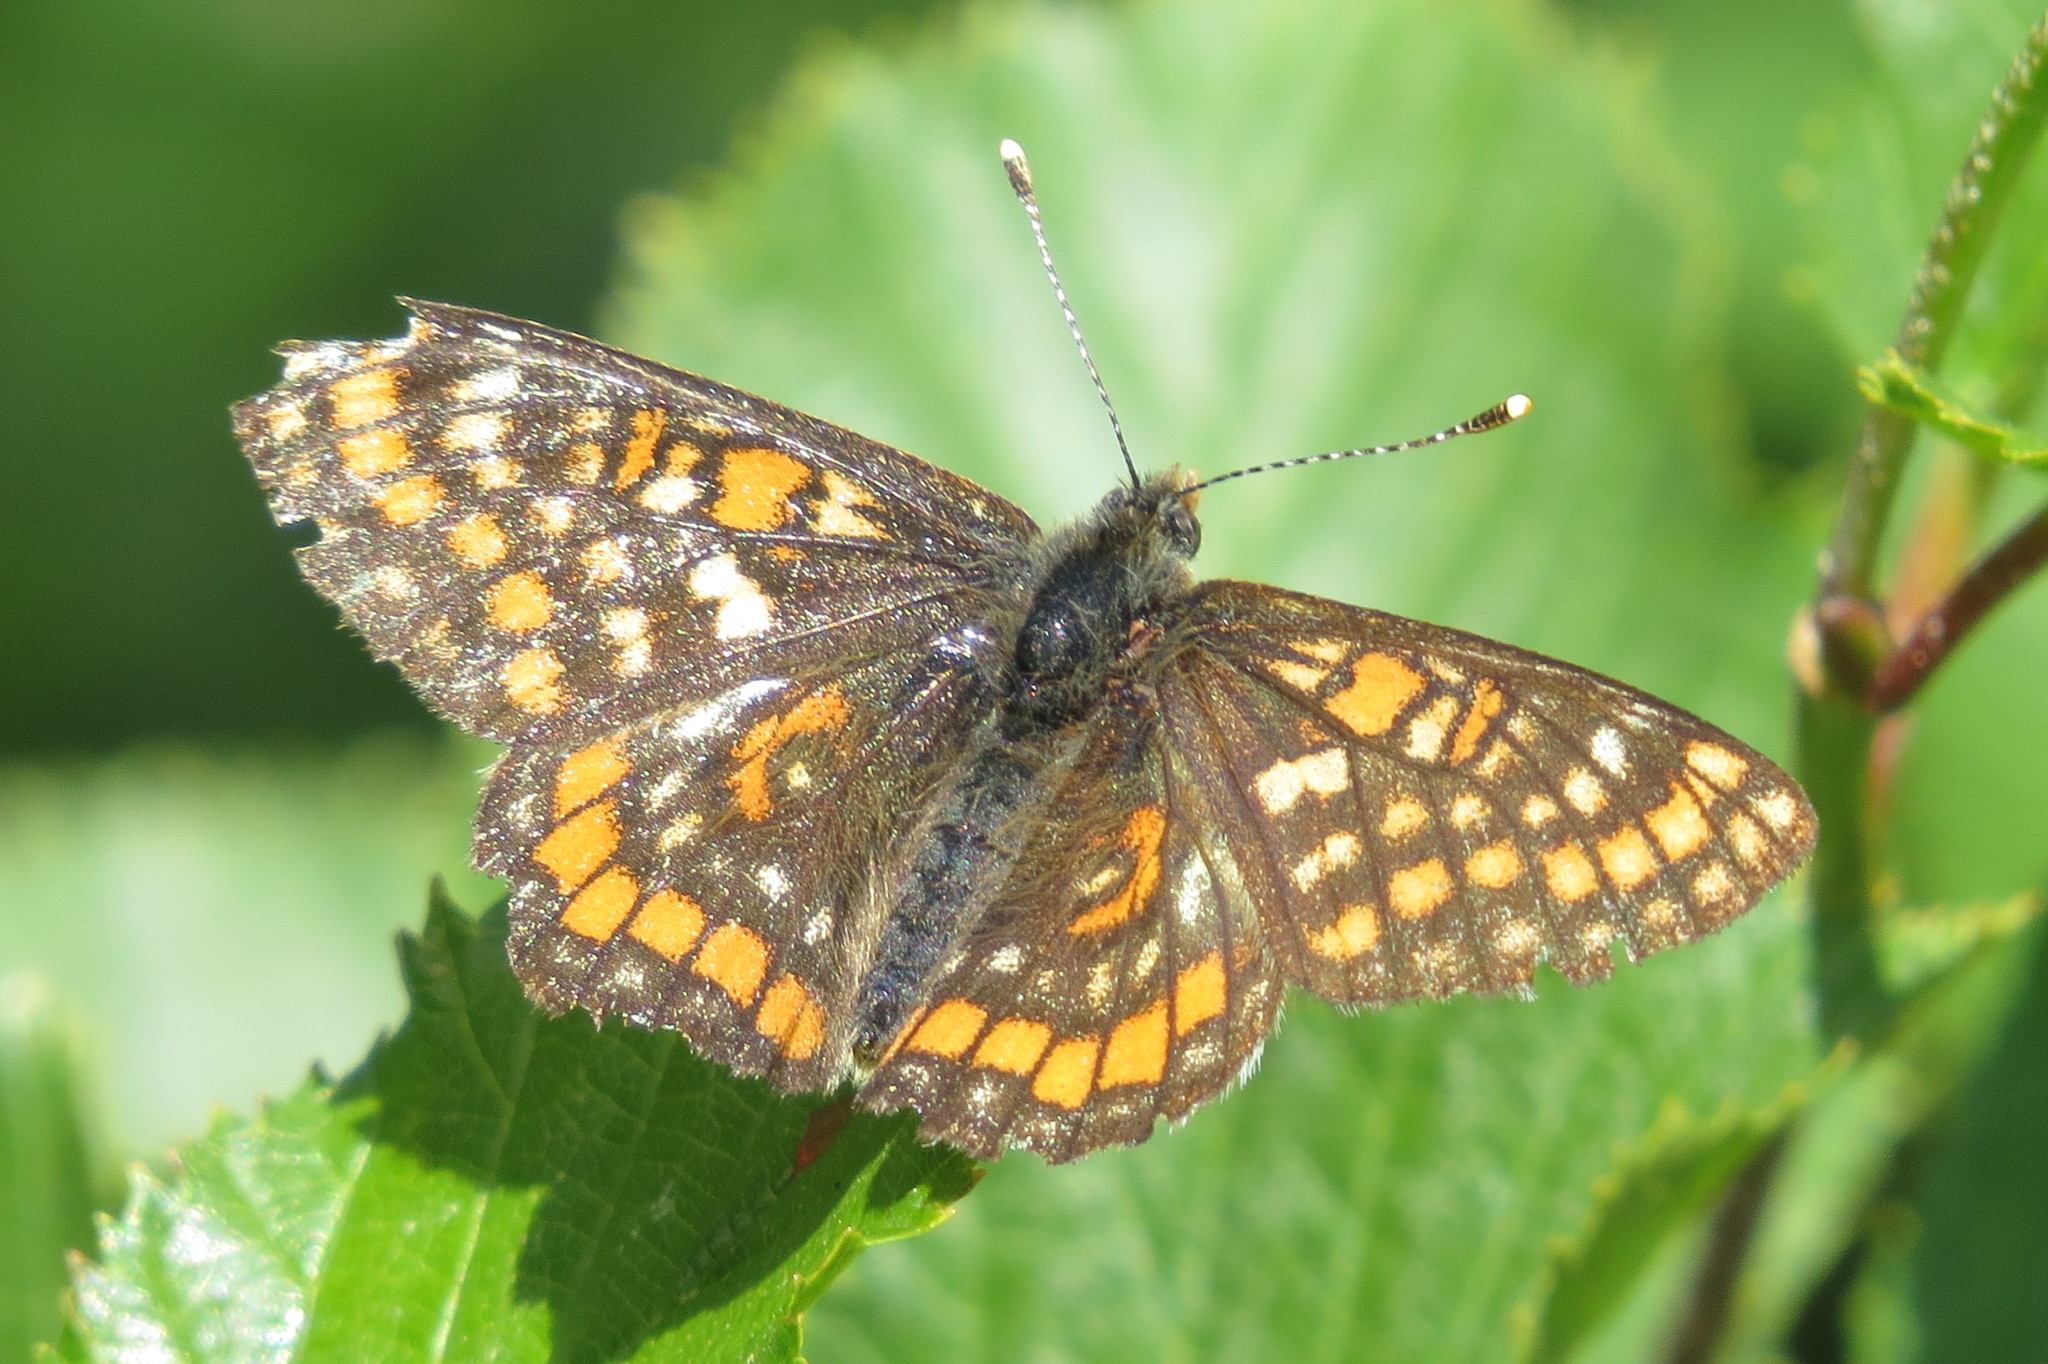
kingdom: Animalia
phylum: Arthropoda
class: Insecta
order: Lepidoptera
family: Nymphalidae
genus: Hypodryas
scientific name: Hypodryas intermedia
